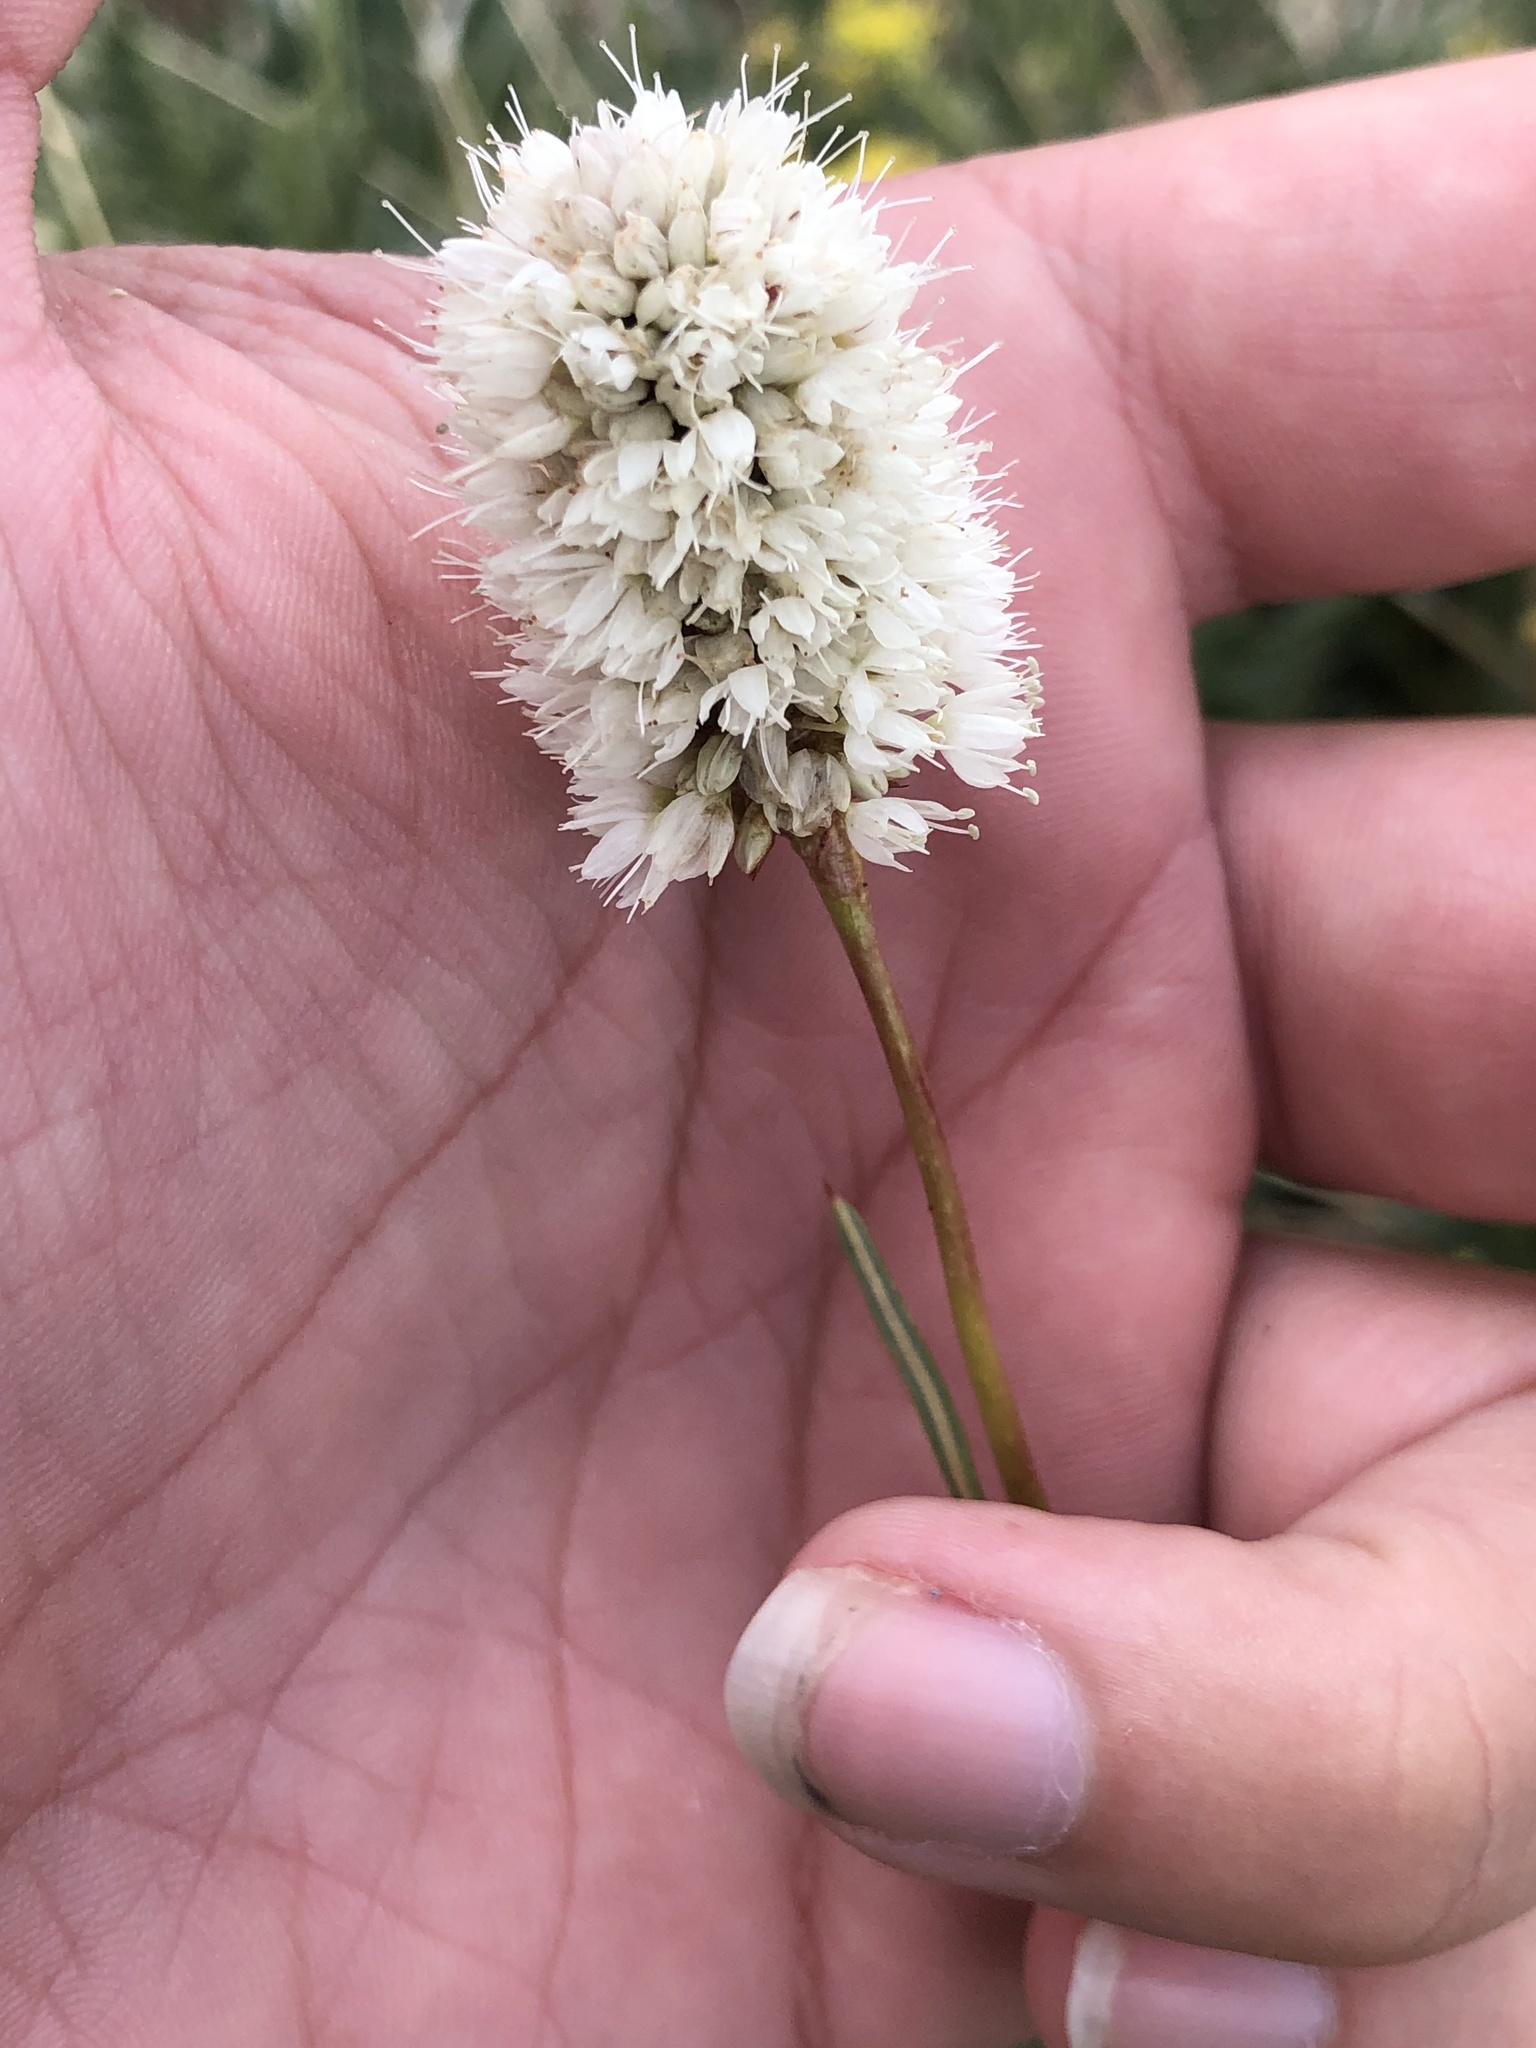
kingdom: Plantae
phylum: Tracheophyta
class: Magnoliopsida
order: Caryophyllales
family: Polygonaceae
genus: Bistorta
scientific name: Bistorta bistortoides
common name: American bistort
